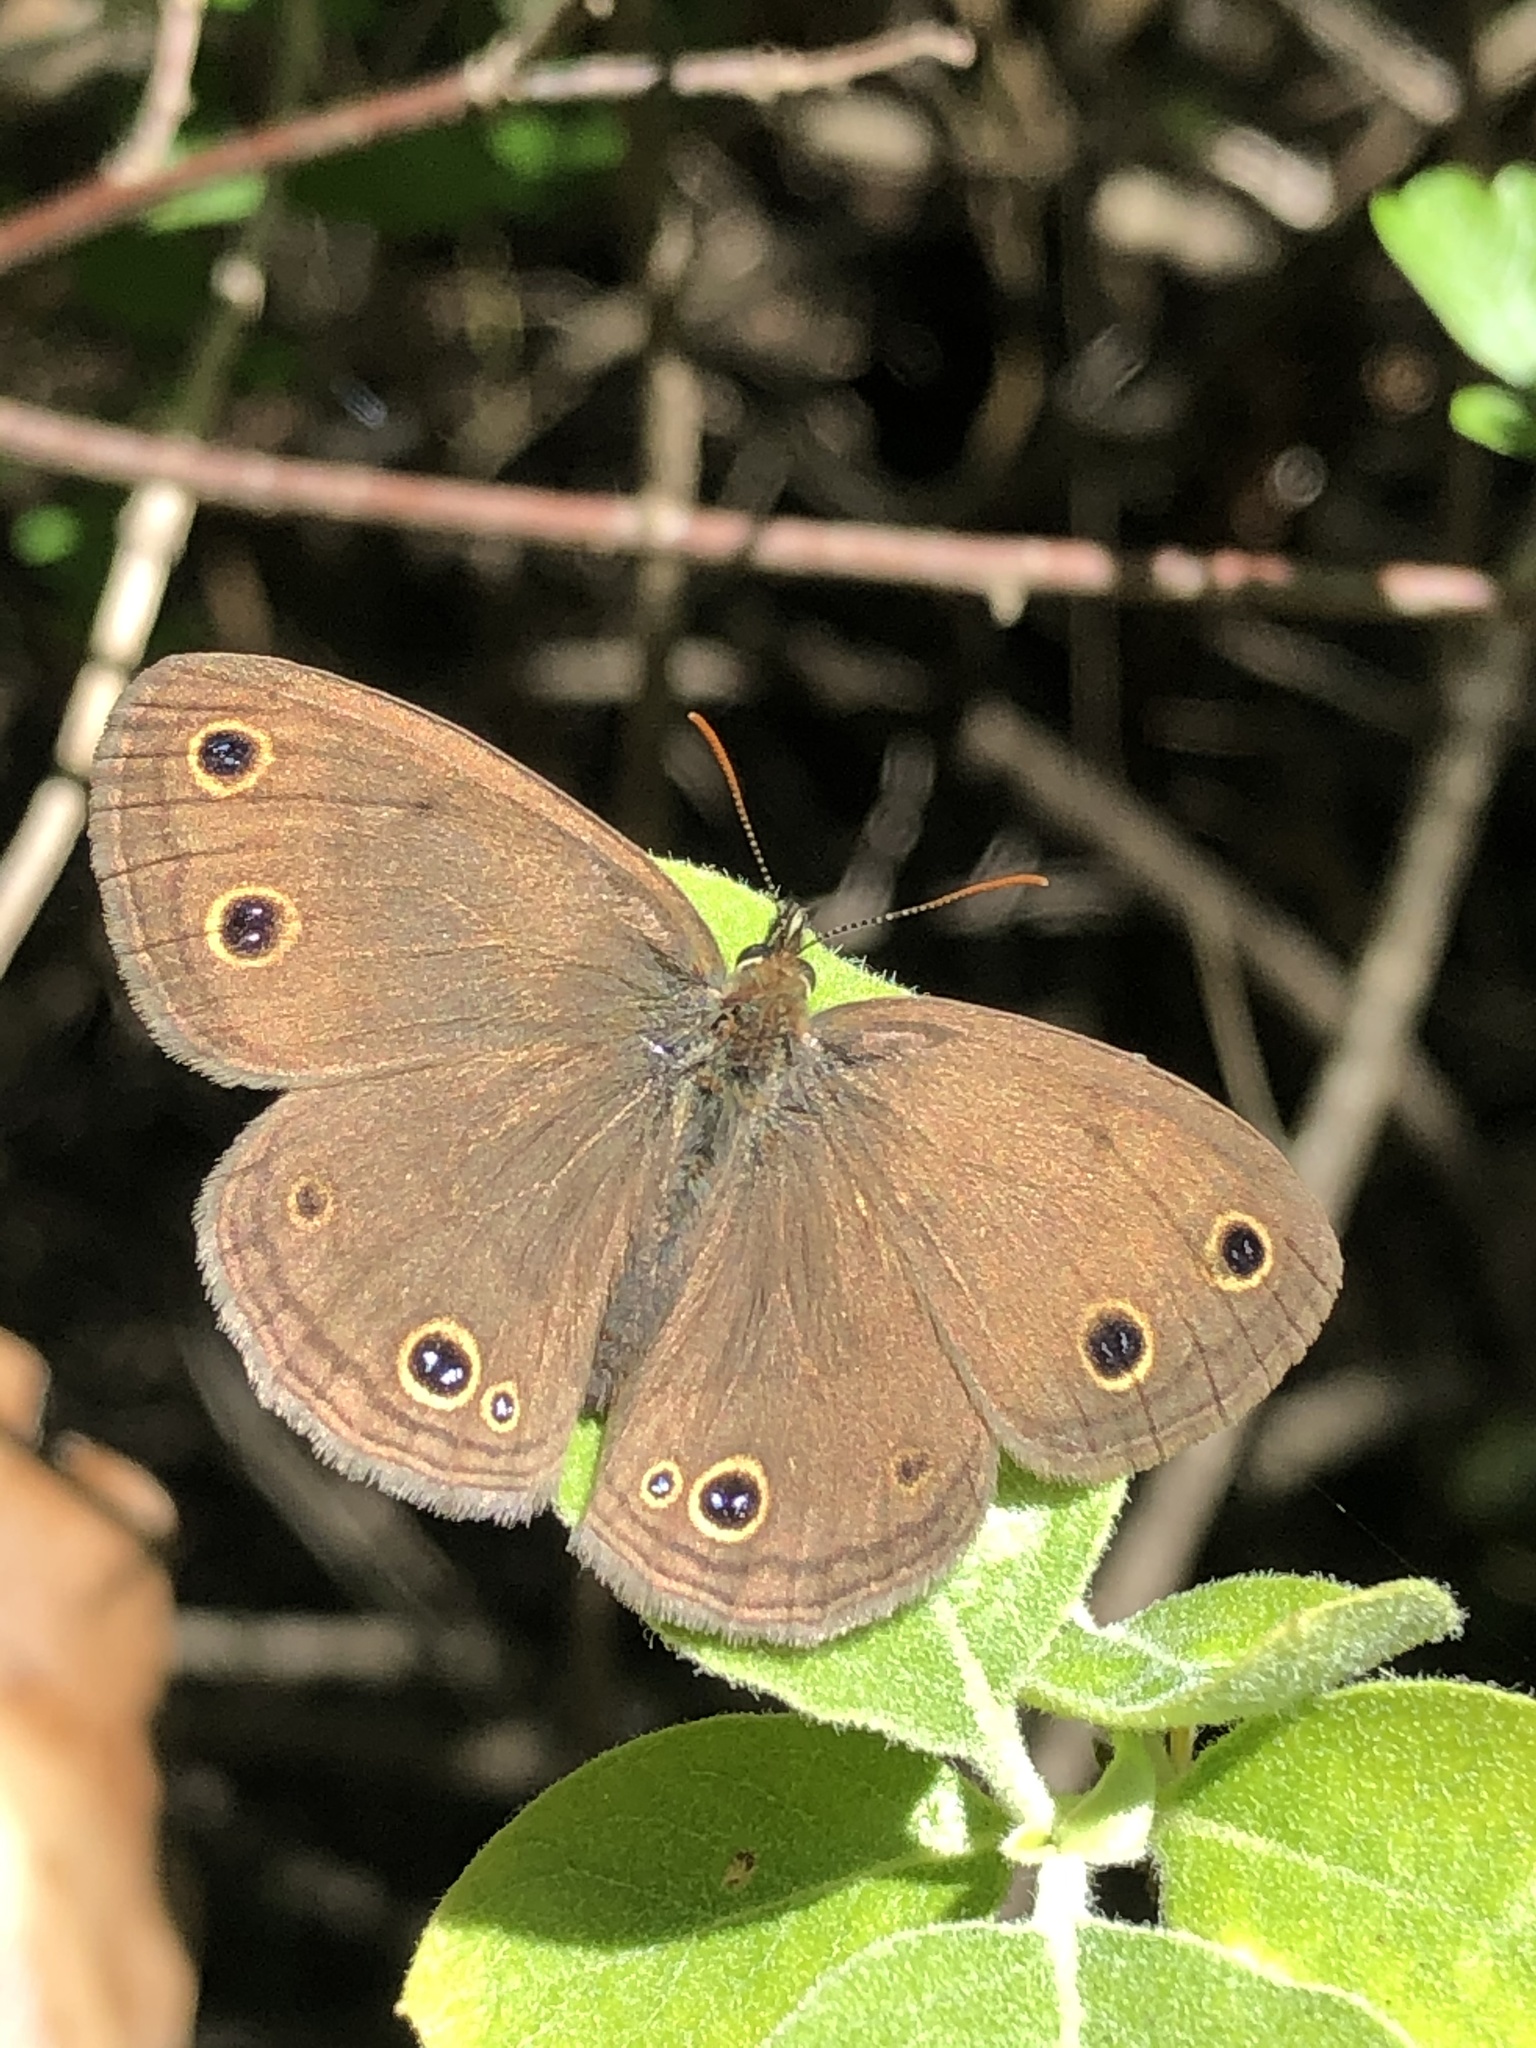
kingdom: Animalia
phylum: Arthropoda
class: Insecta
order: Lepidoptera
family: Nymphalidae
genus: Euptychia
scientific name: Euptychia cymela
